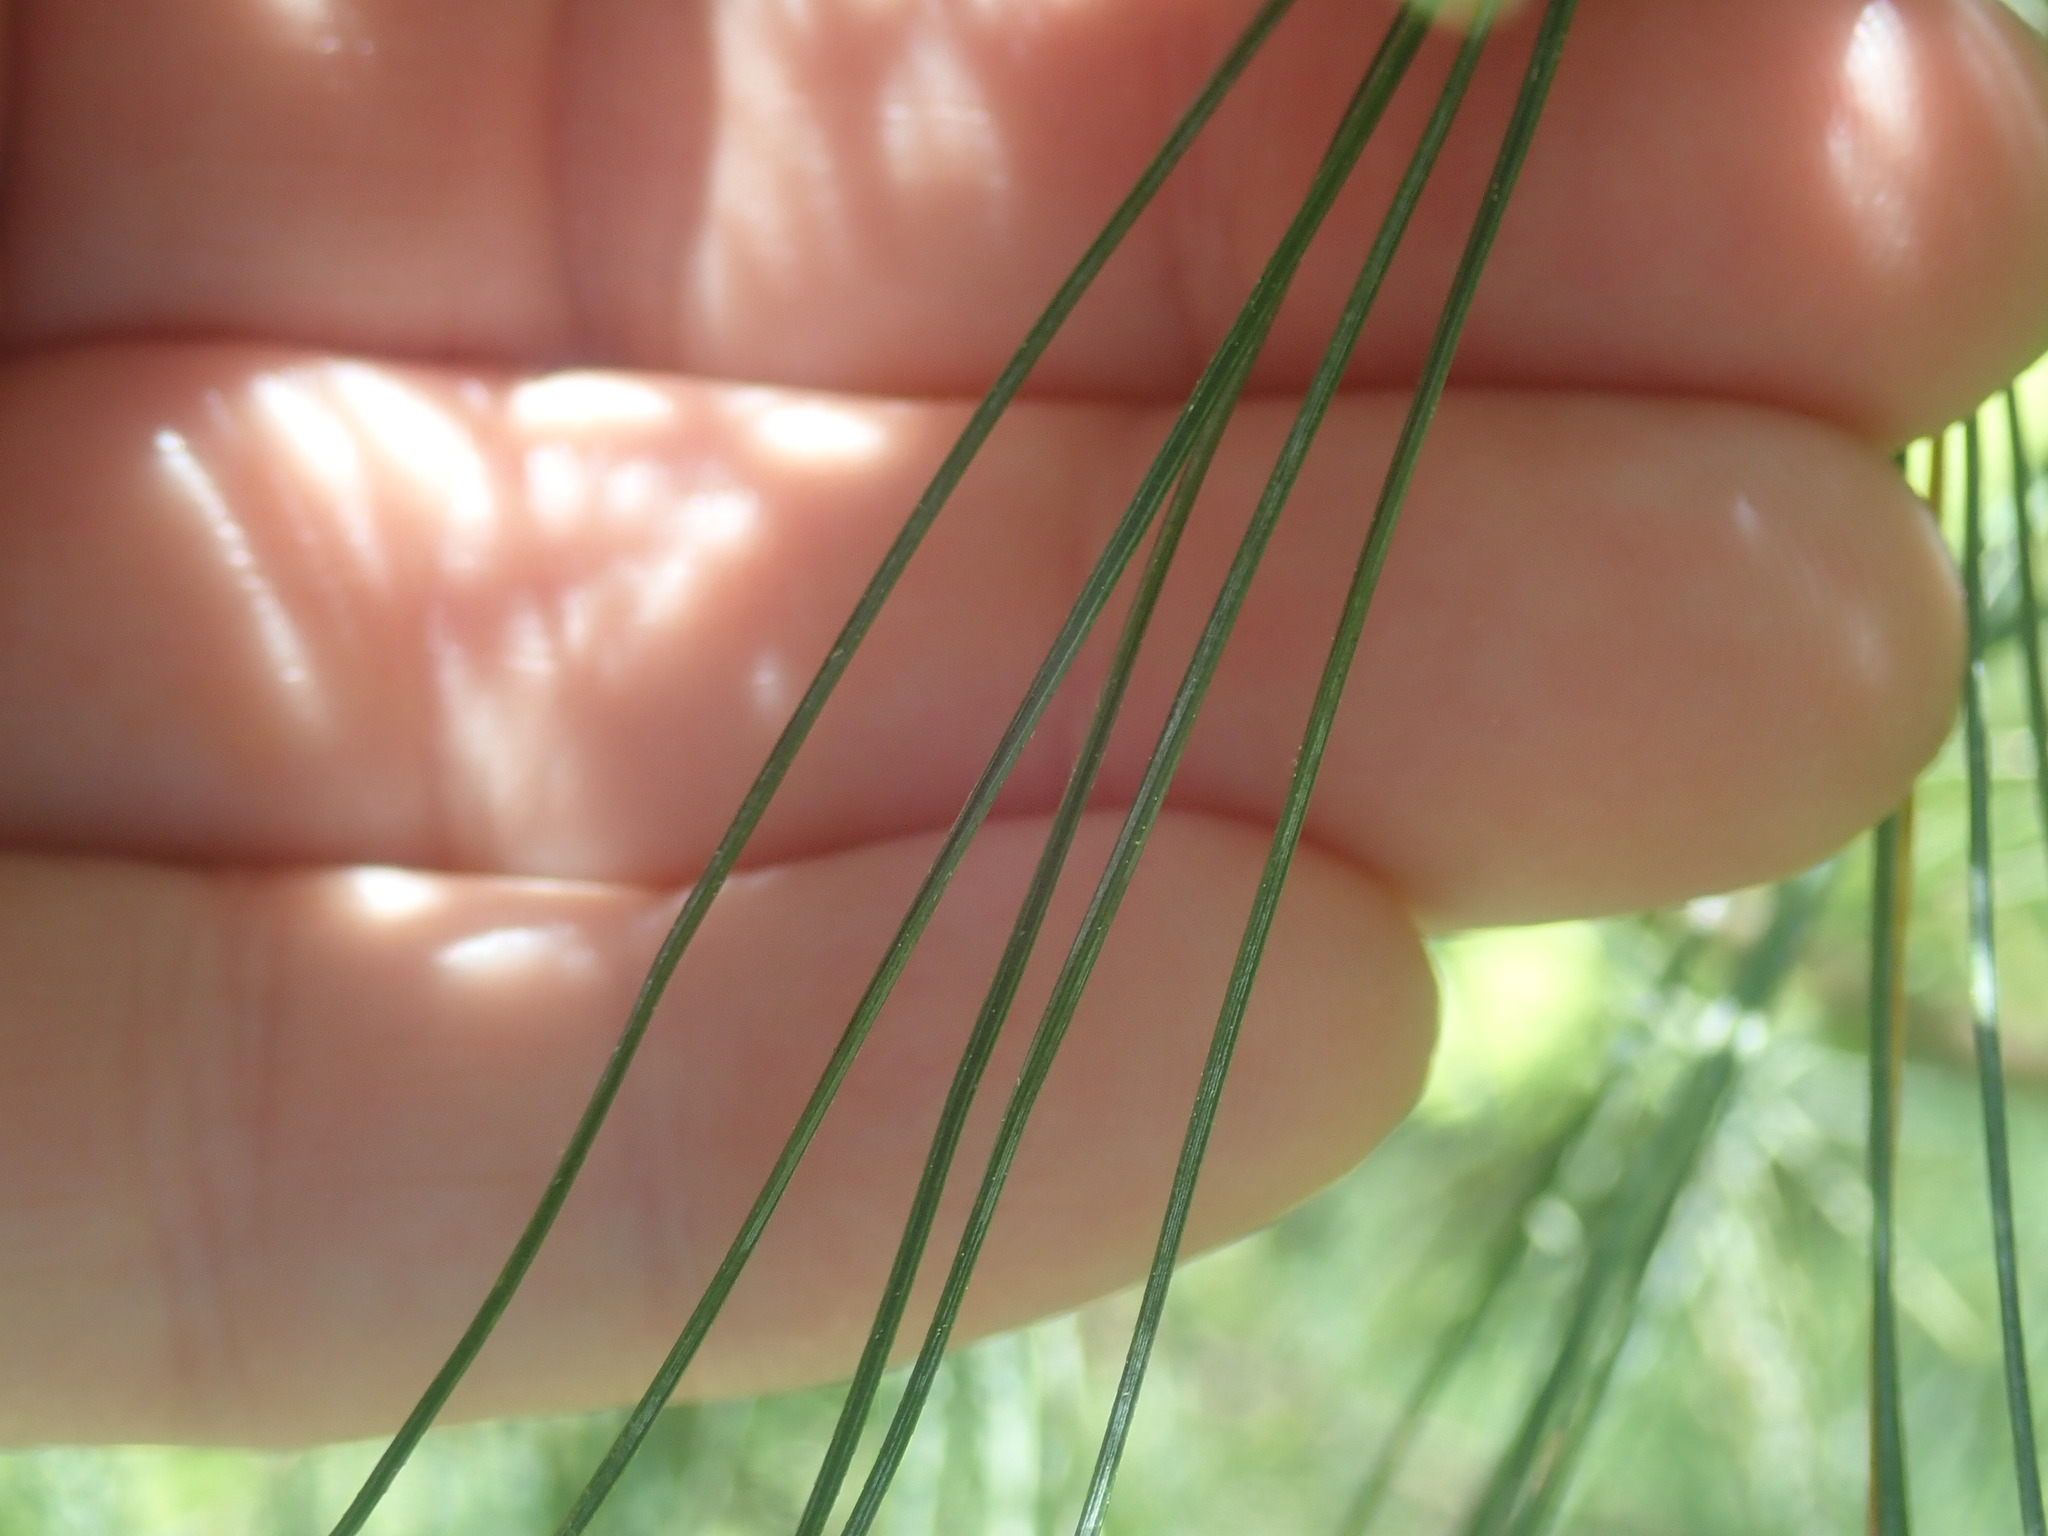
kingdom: Plantae
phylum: Tracheophyta
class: Pinopsida
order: Pinales
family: Pinaceae
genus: Pinus
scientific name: Pinus strobus
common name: Weymouth pine
